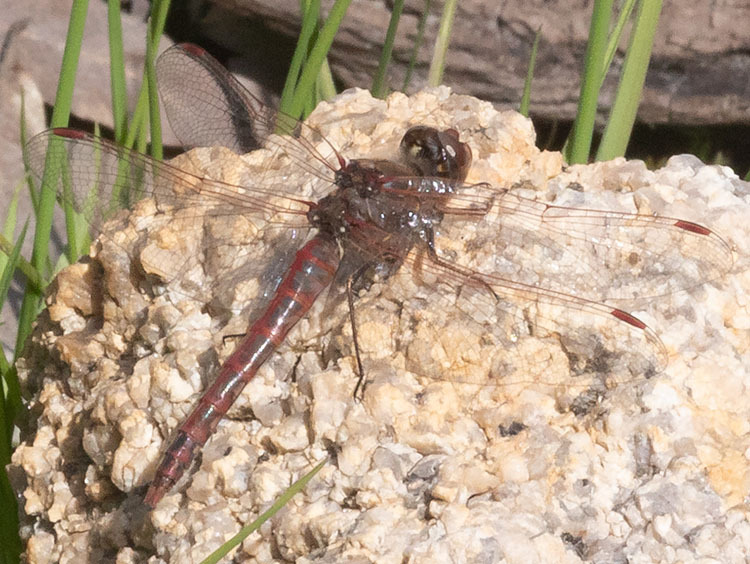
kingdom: Animalia
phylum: Arthropoda
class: Insecta
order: Odonata
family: Libellulidae
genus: Sympetrum
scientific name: Sympetrum corruptum
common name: Variegated meadowhawk
